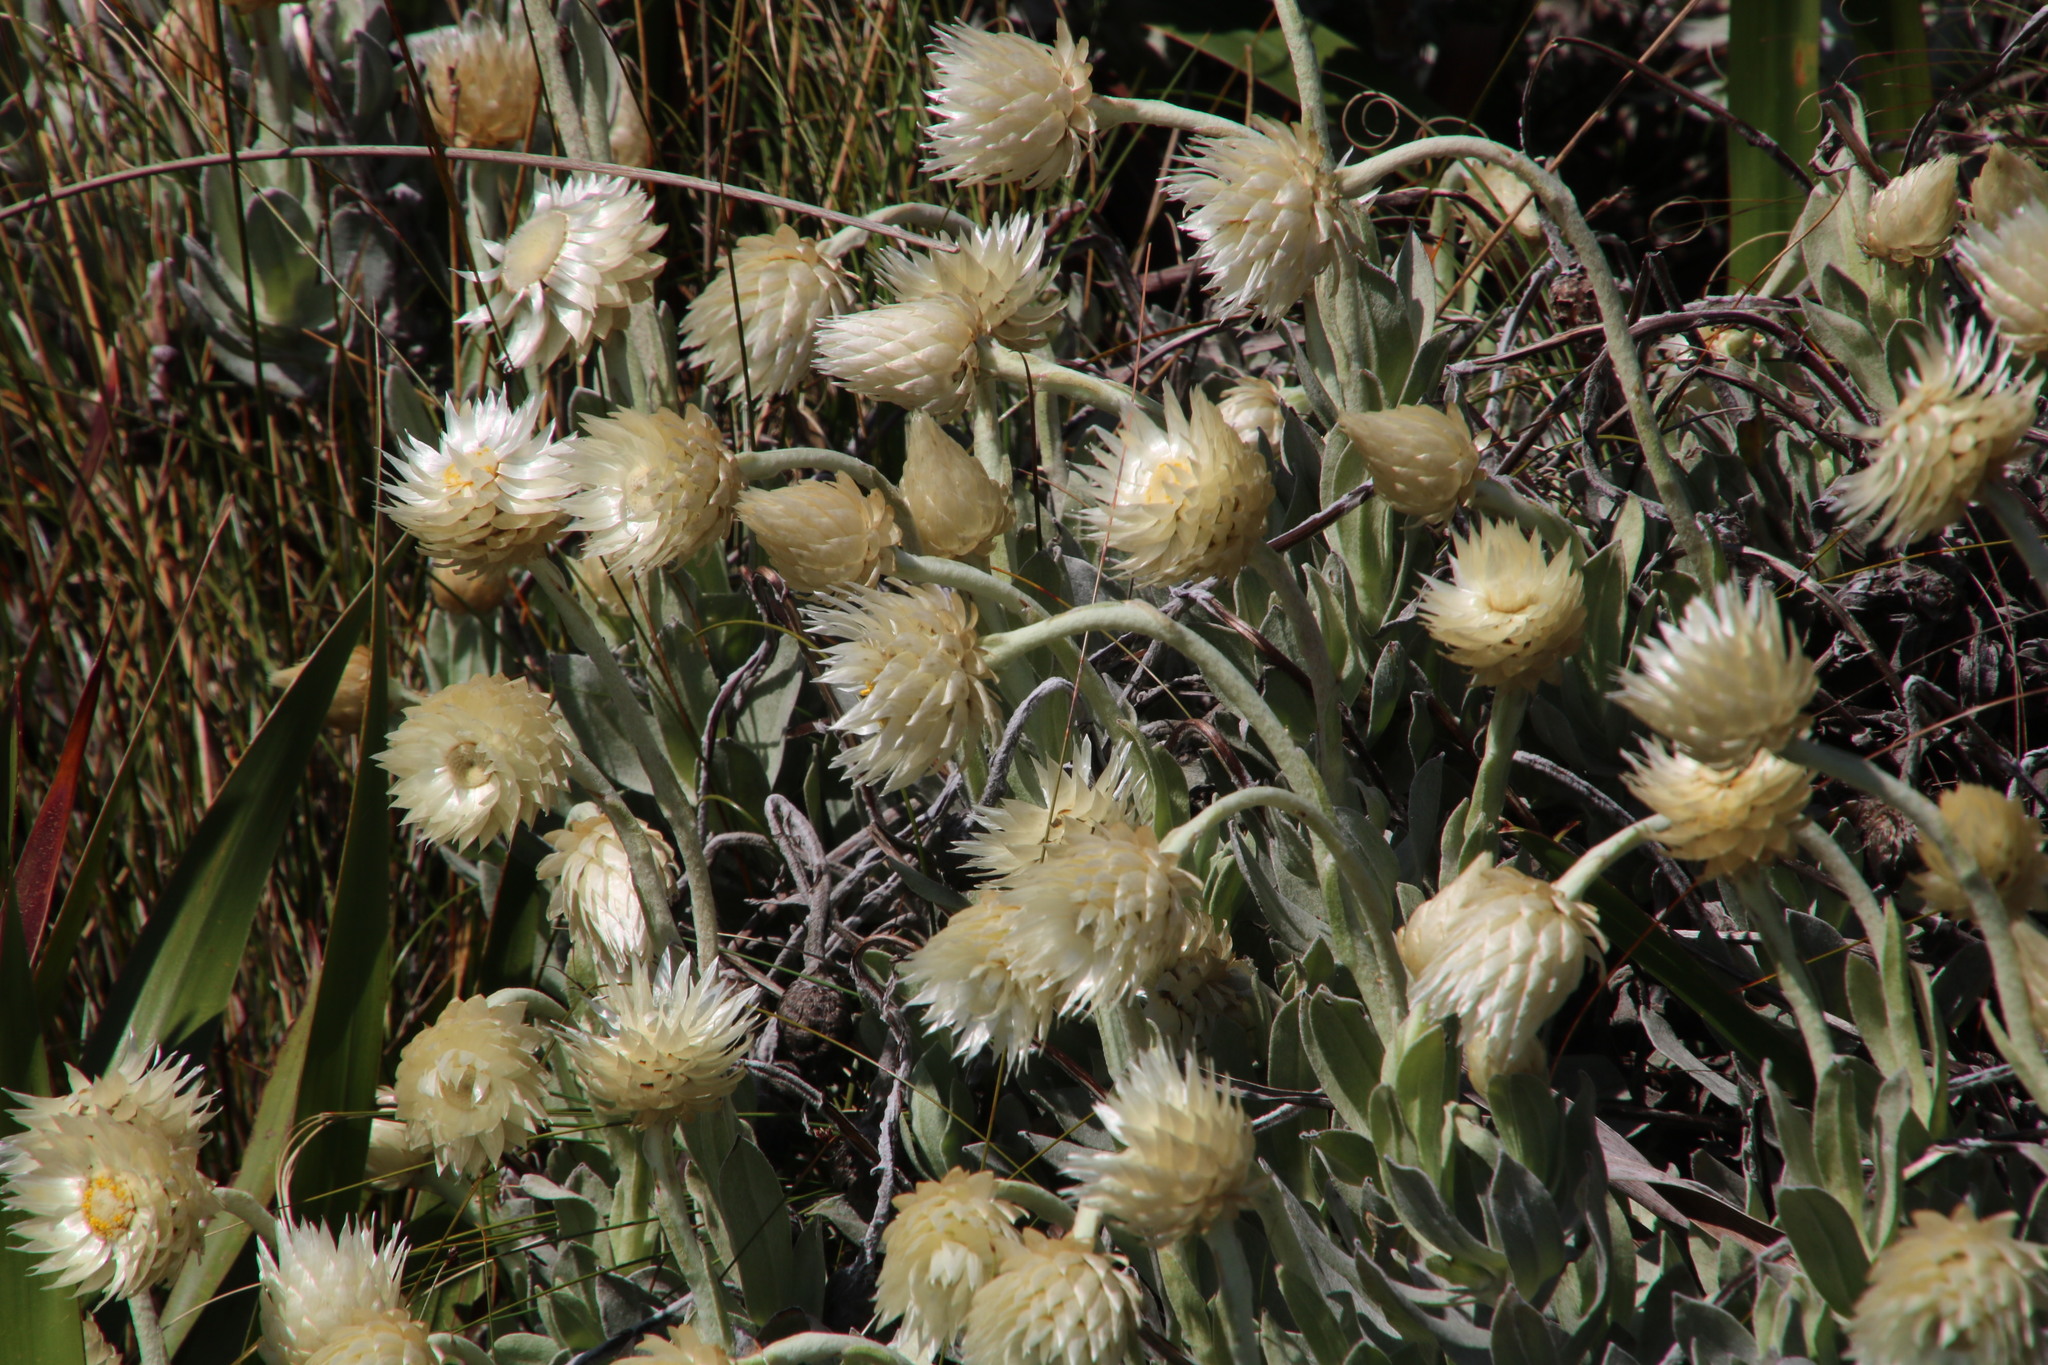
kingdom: Plantae
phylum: Tracheophyta
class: Magnoliopsida
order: Asterales
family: Asteraceae
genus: Syncarpha
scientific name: Syncarpha speciosissima
